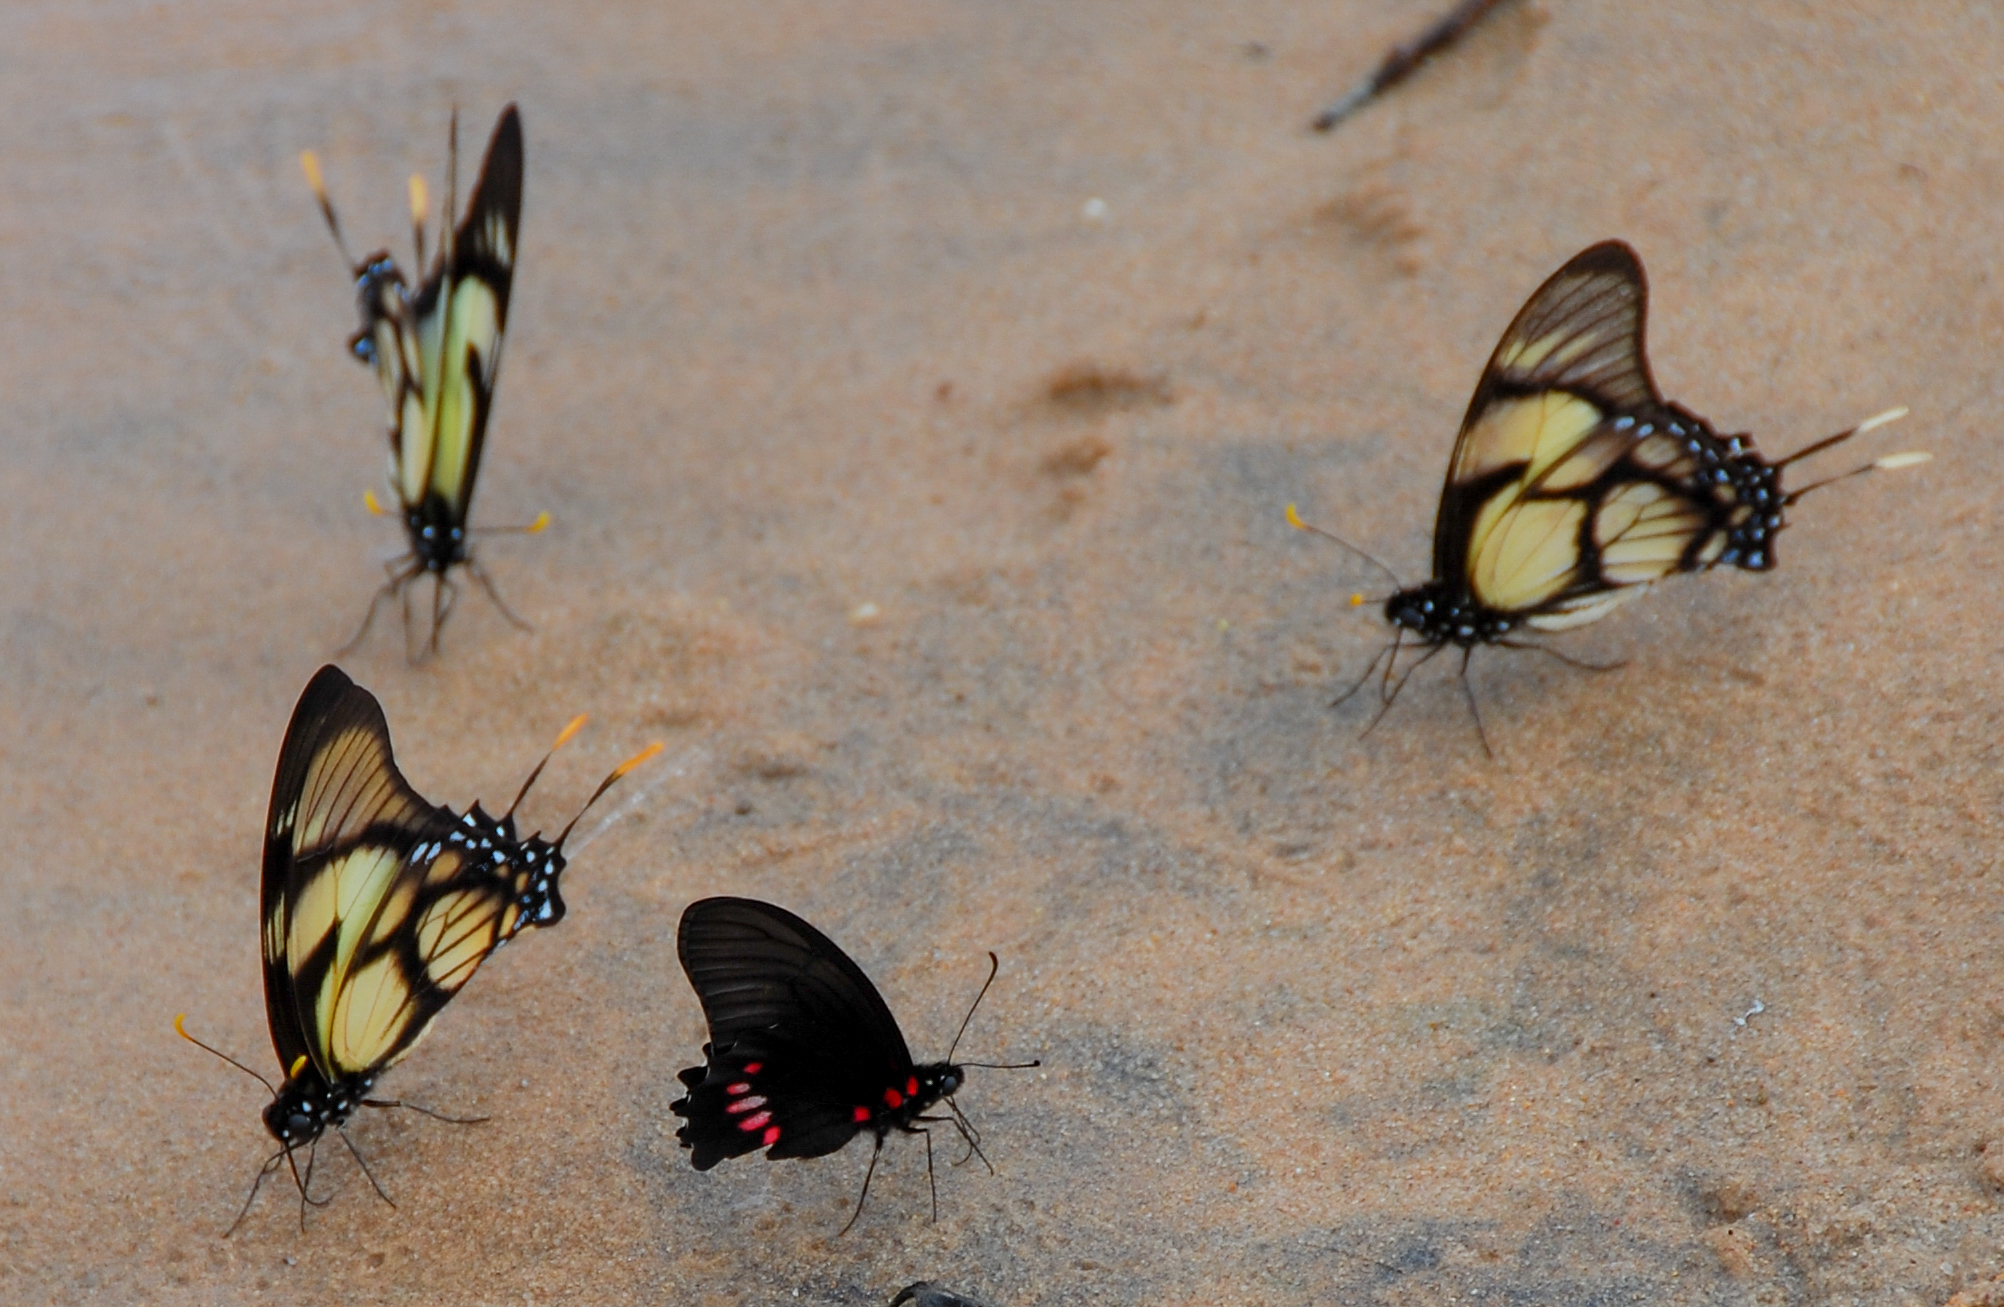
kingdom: Animalia
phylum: Arthropoda
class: Insecta
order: Lepidoptera
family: Papilionidae
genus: Eurytides
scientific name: Eurytides dolicaon
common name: Dolicaon kite swallowtail
